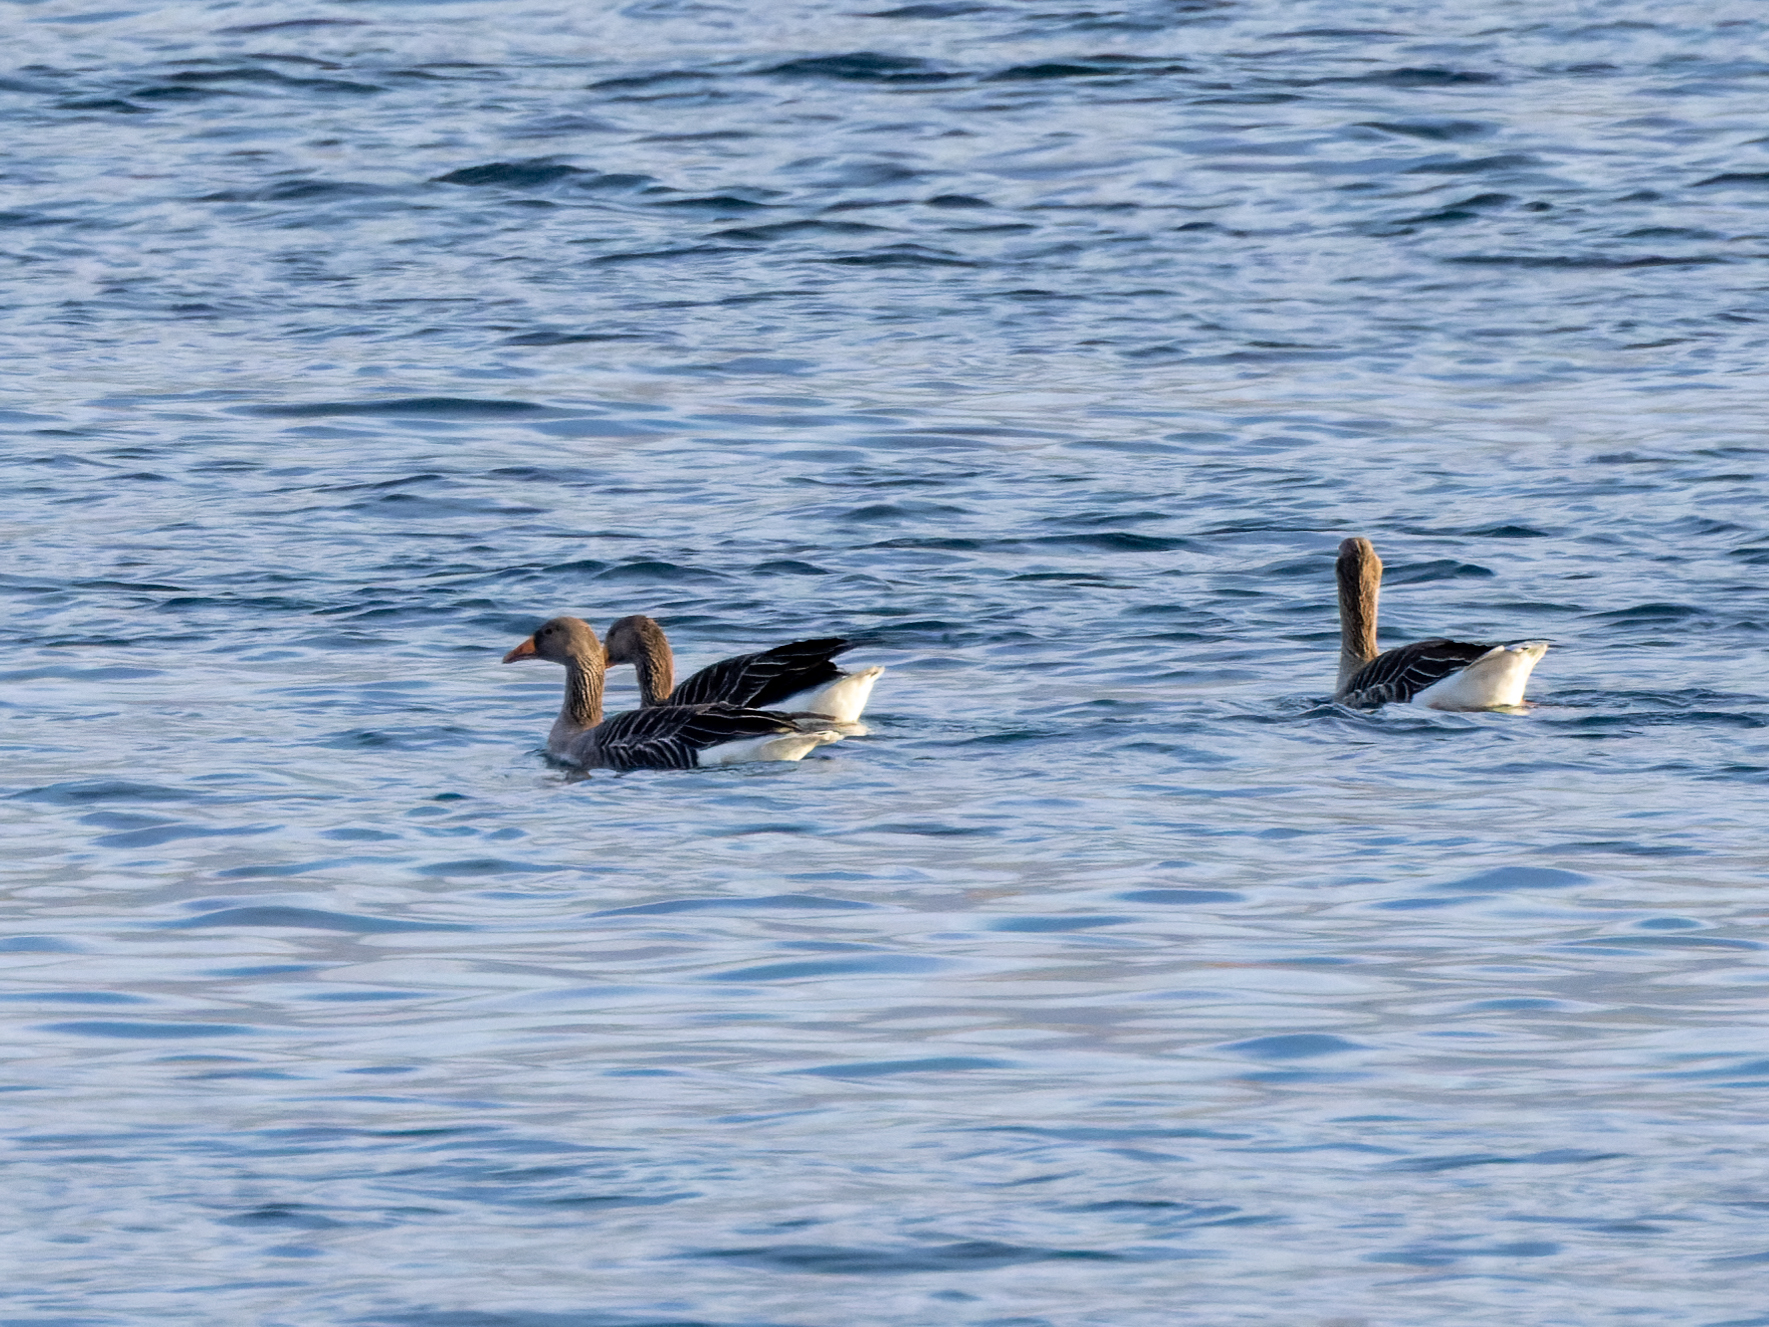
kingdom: Animalia
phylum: Chordata
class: Aves
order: Anseriformes
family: Anatidae
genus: Anser
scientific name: Anser anser
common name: Greylag goose
